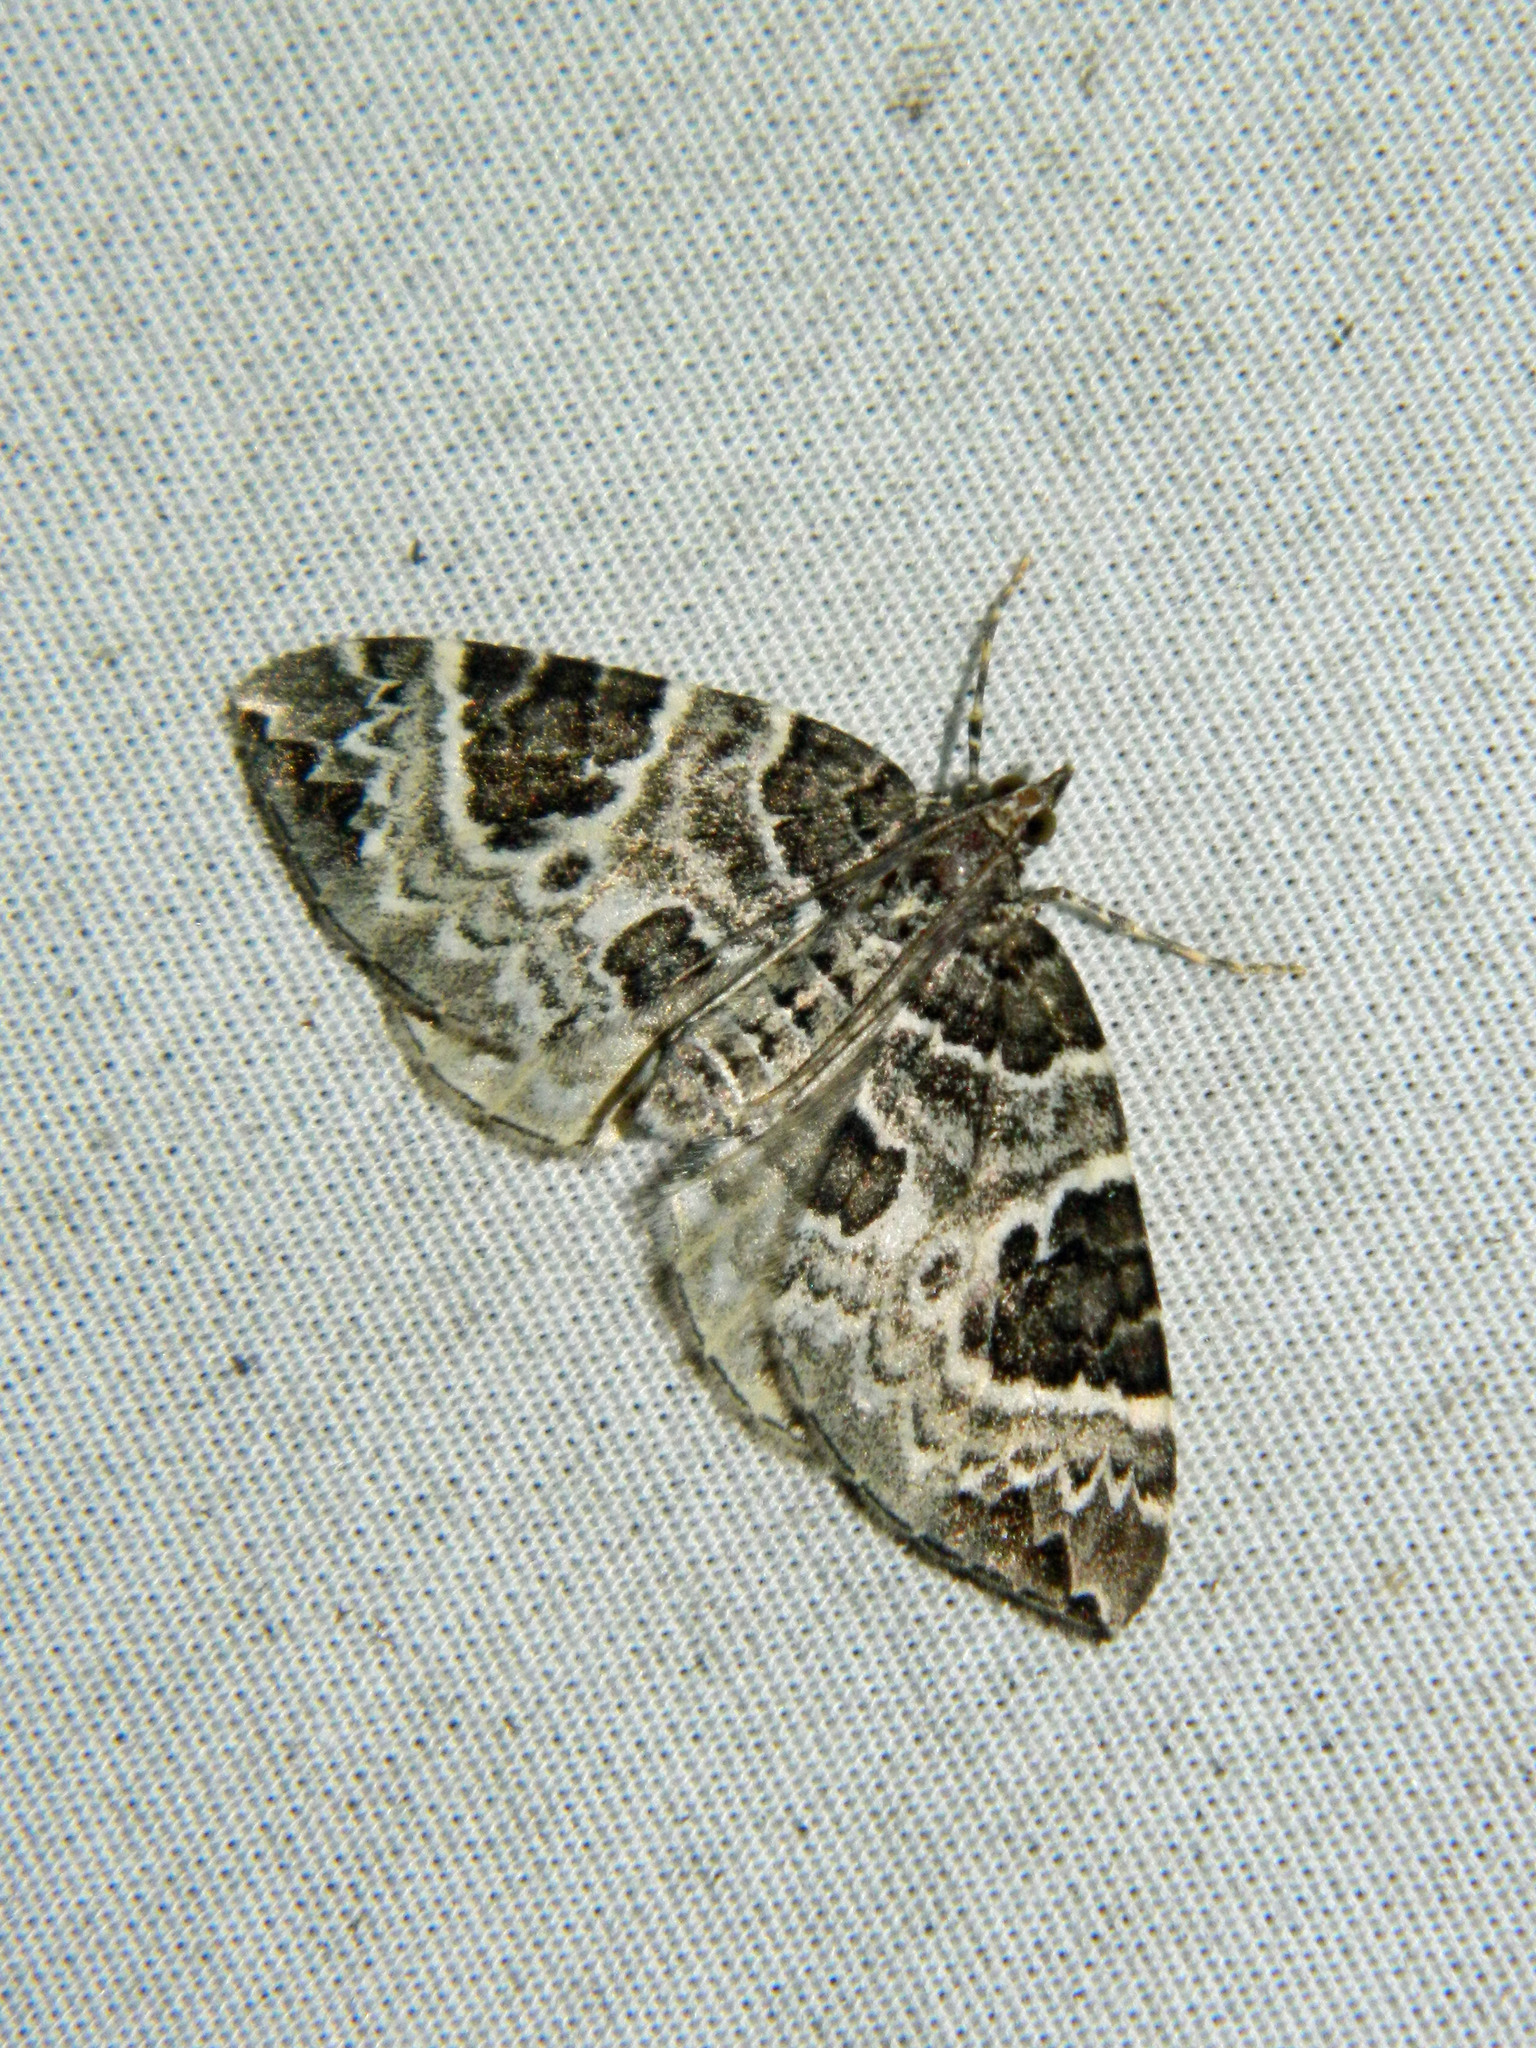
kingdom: Animalia
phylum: Arthropoda
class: Insecta
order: Lepidoptera
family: Geometridae
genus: Eulithis
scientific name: Eulithis explanata
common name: White eulithis
